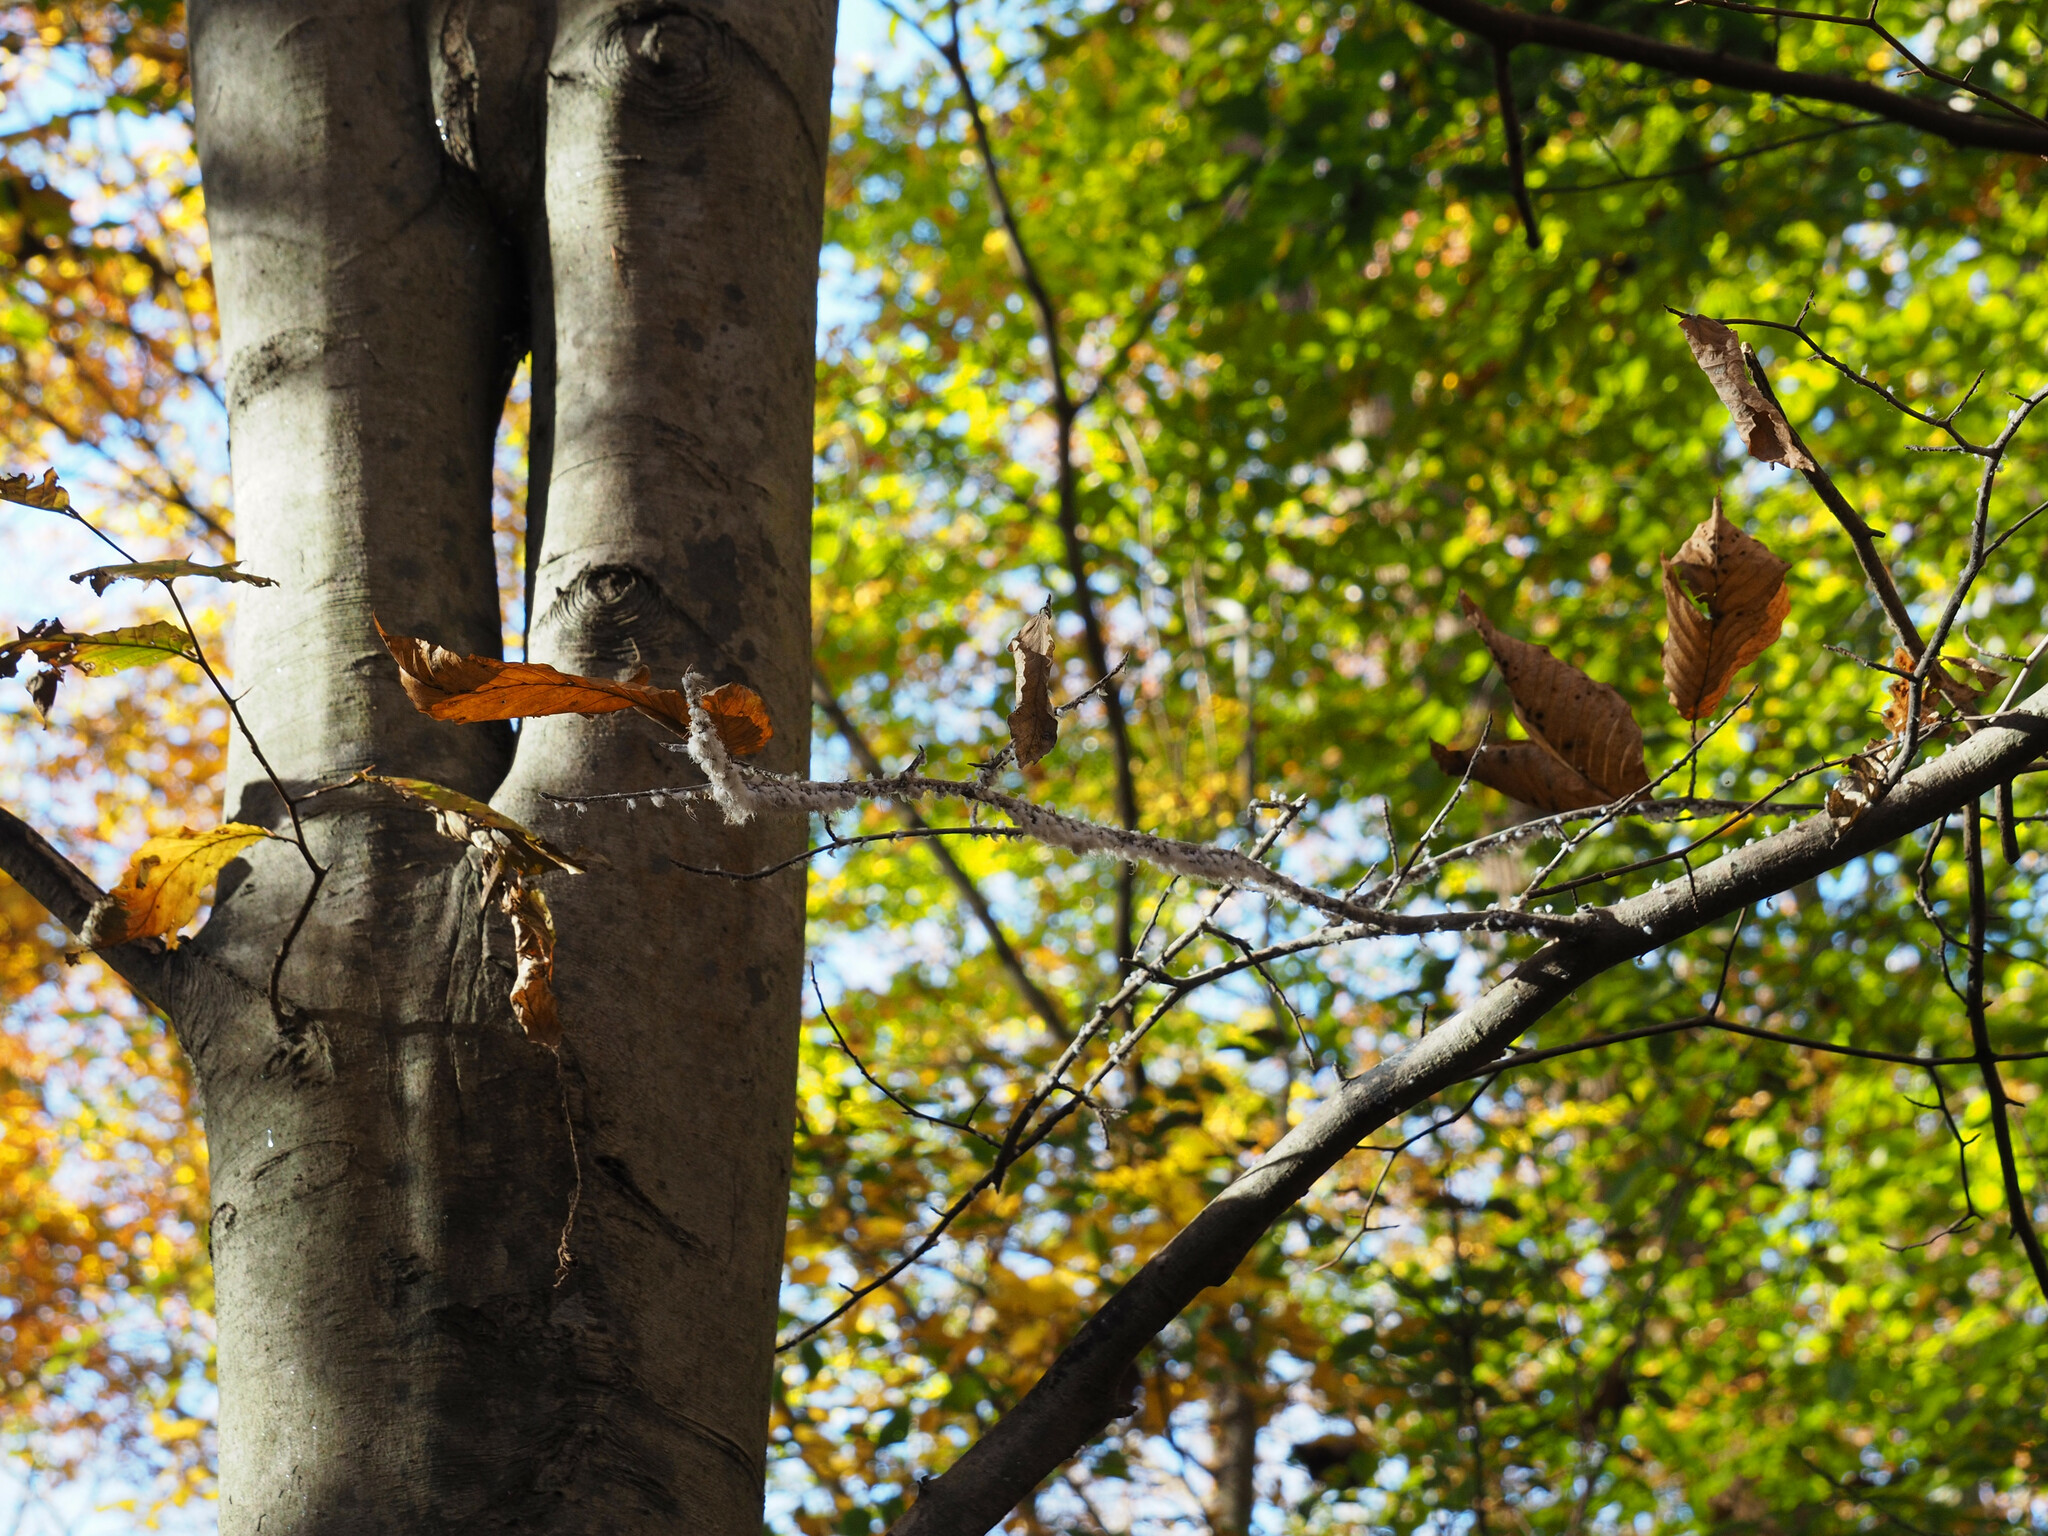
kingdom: Animalia
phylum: Arthropoda
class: Insecta
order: Hemiptera
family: Aphididae
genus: Grylloprociphilus
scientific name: Grylloprociphilus imbricator
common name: Beech blight aphid
